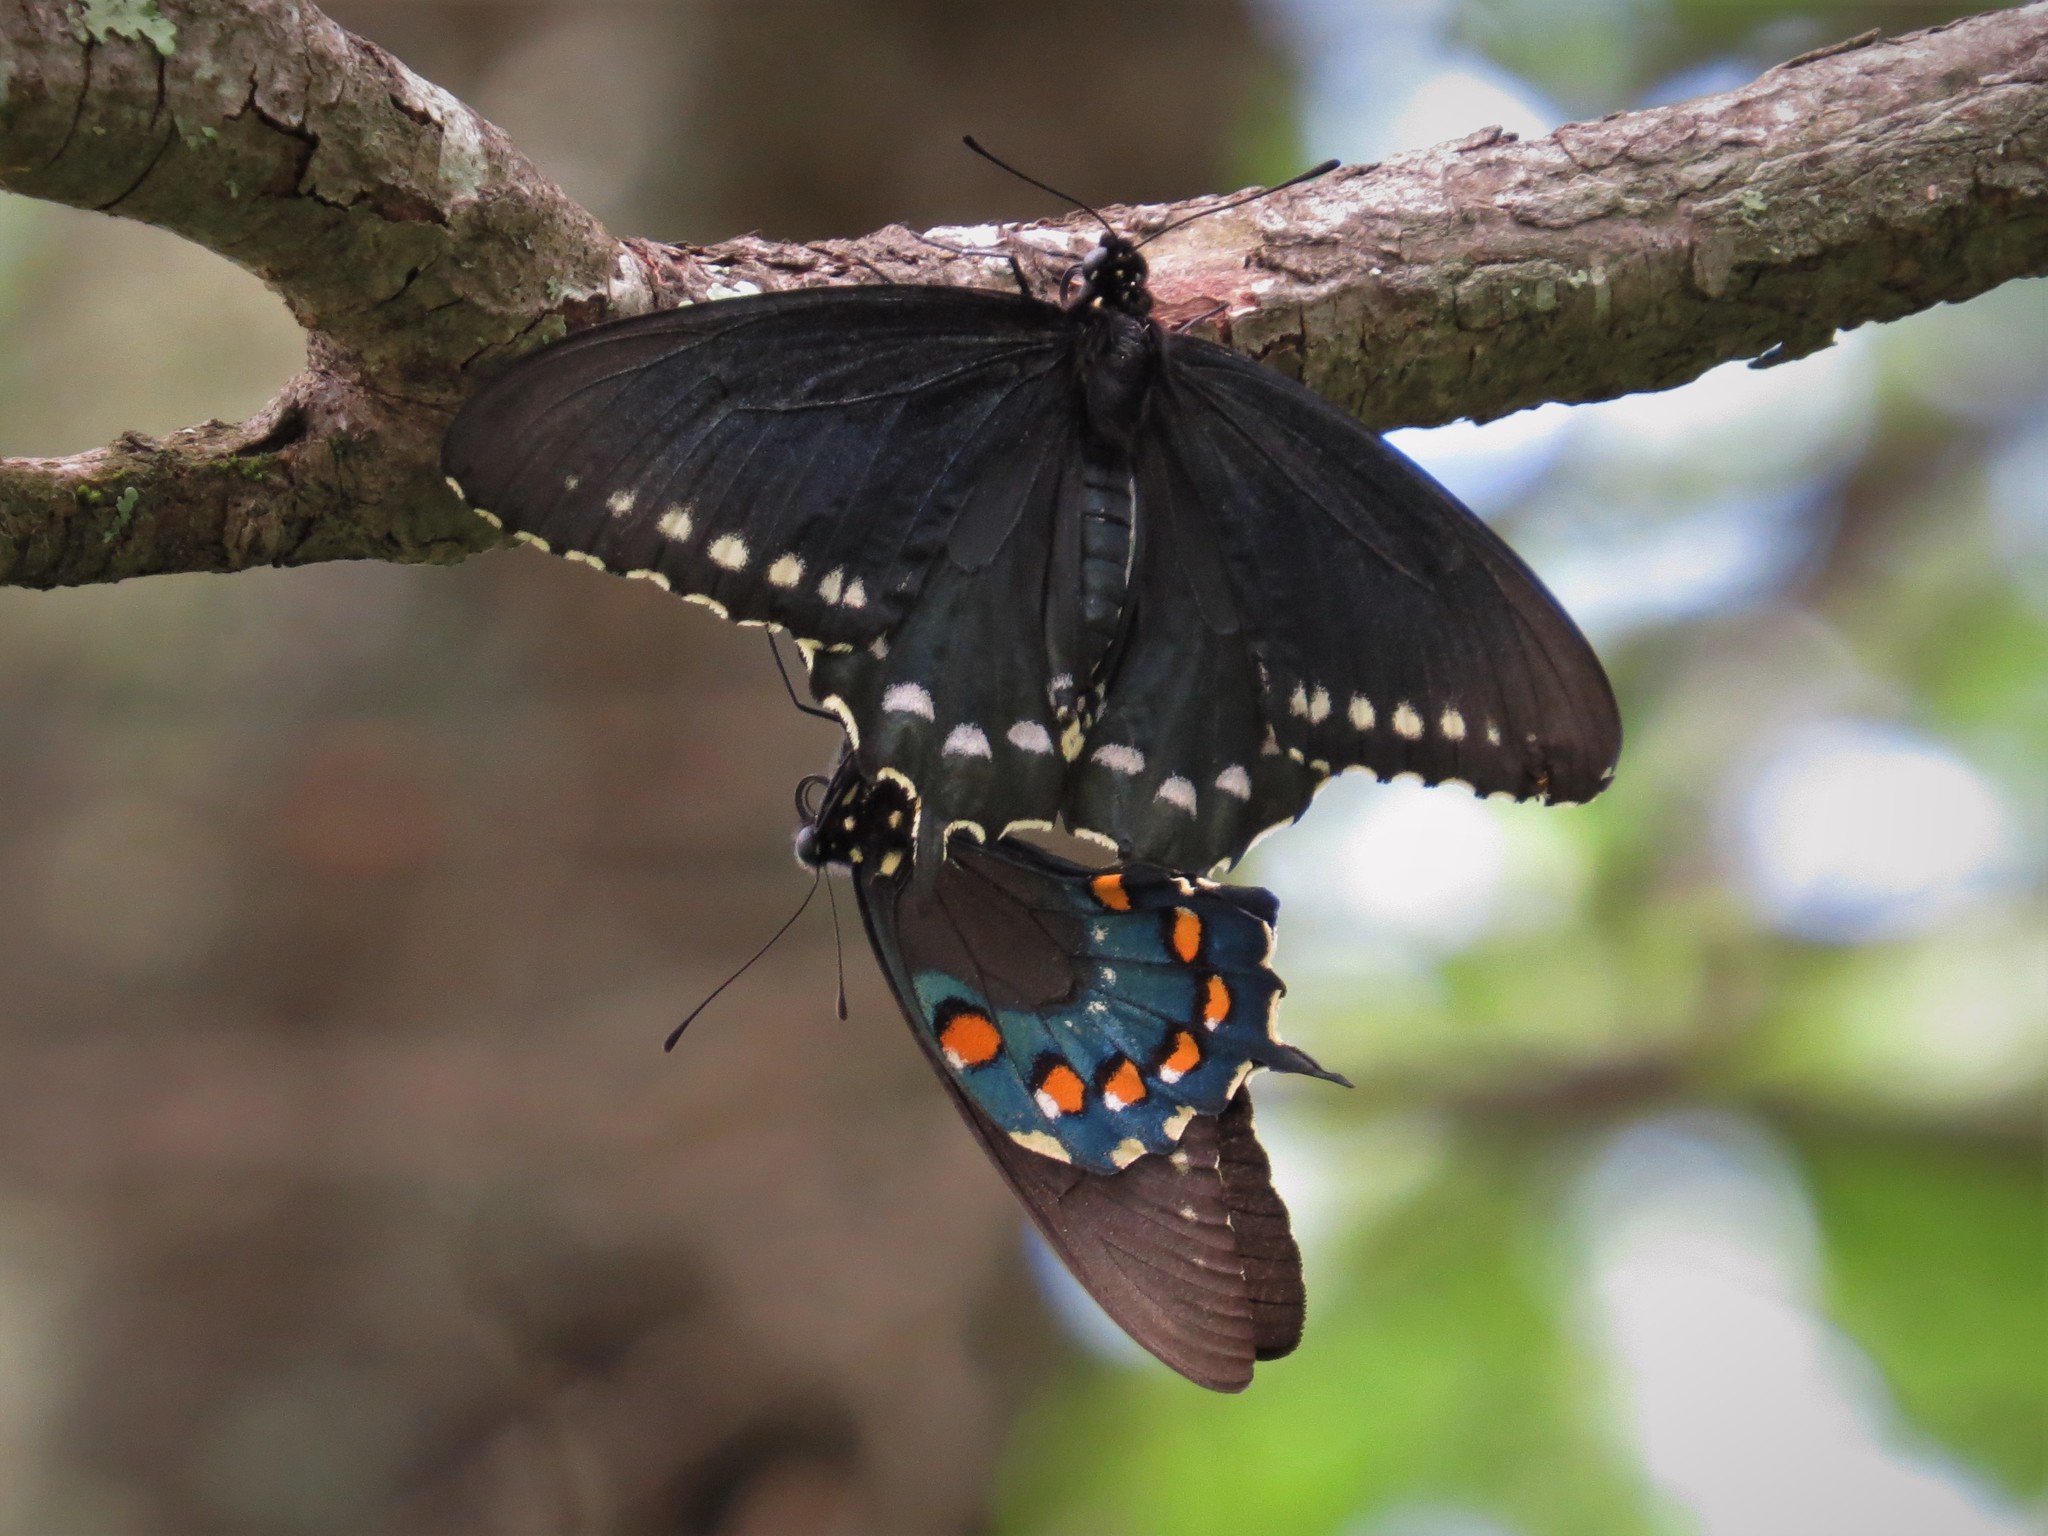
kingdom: Animalia
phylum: Arthropoda
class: Insecta
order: Lepidoptera
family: Papilionidae
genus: Battus
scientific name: Battus philenor
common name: Pipevine swallowtail
